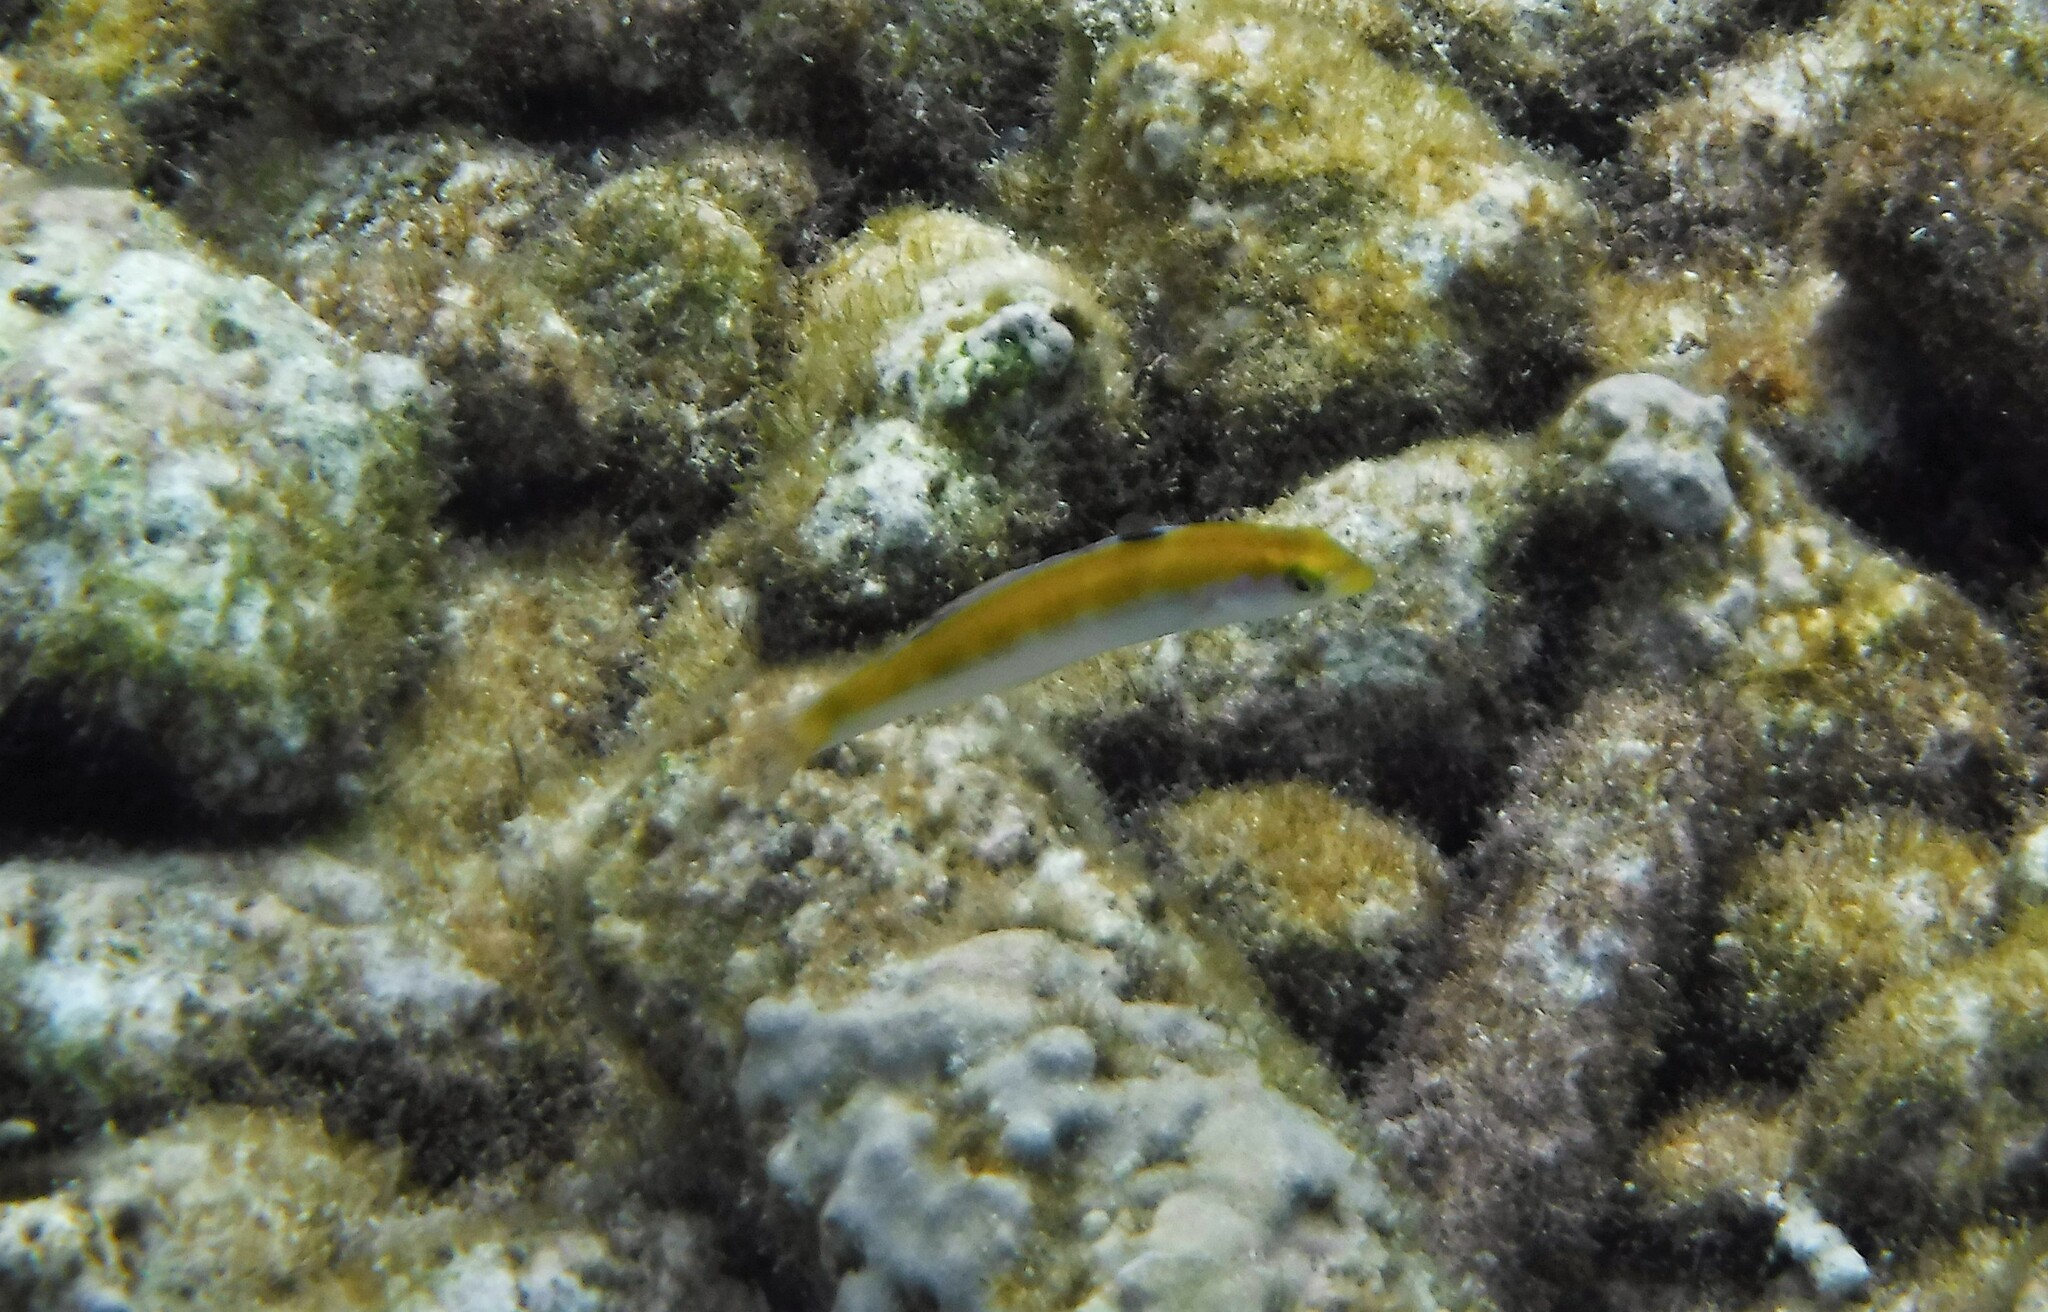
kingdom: Animalia
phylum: Chordata
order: Perciformes
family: Labridae
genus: Thalassoma
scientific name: Thalassoma bifasciatum
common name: Bluehead wrasse
